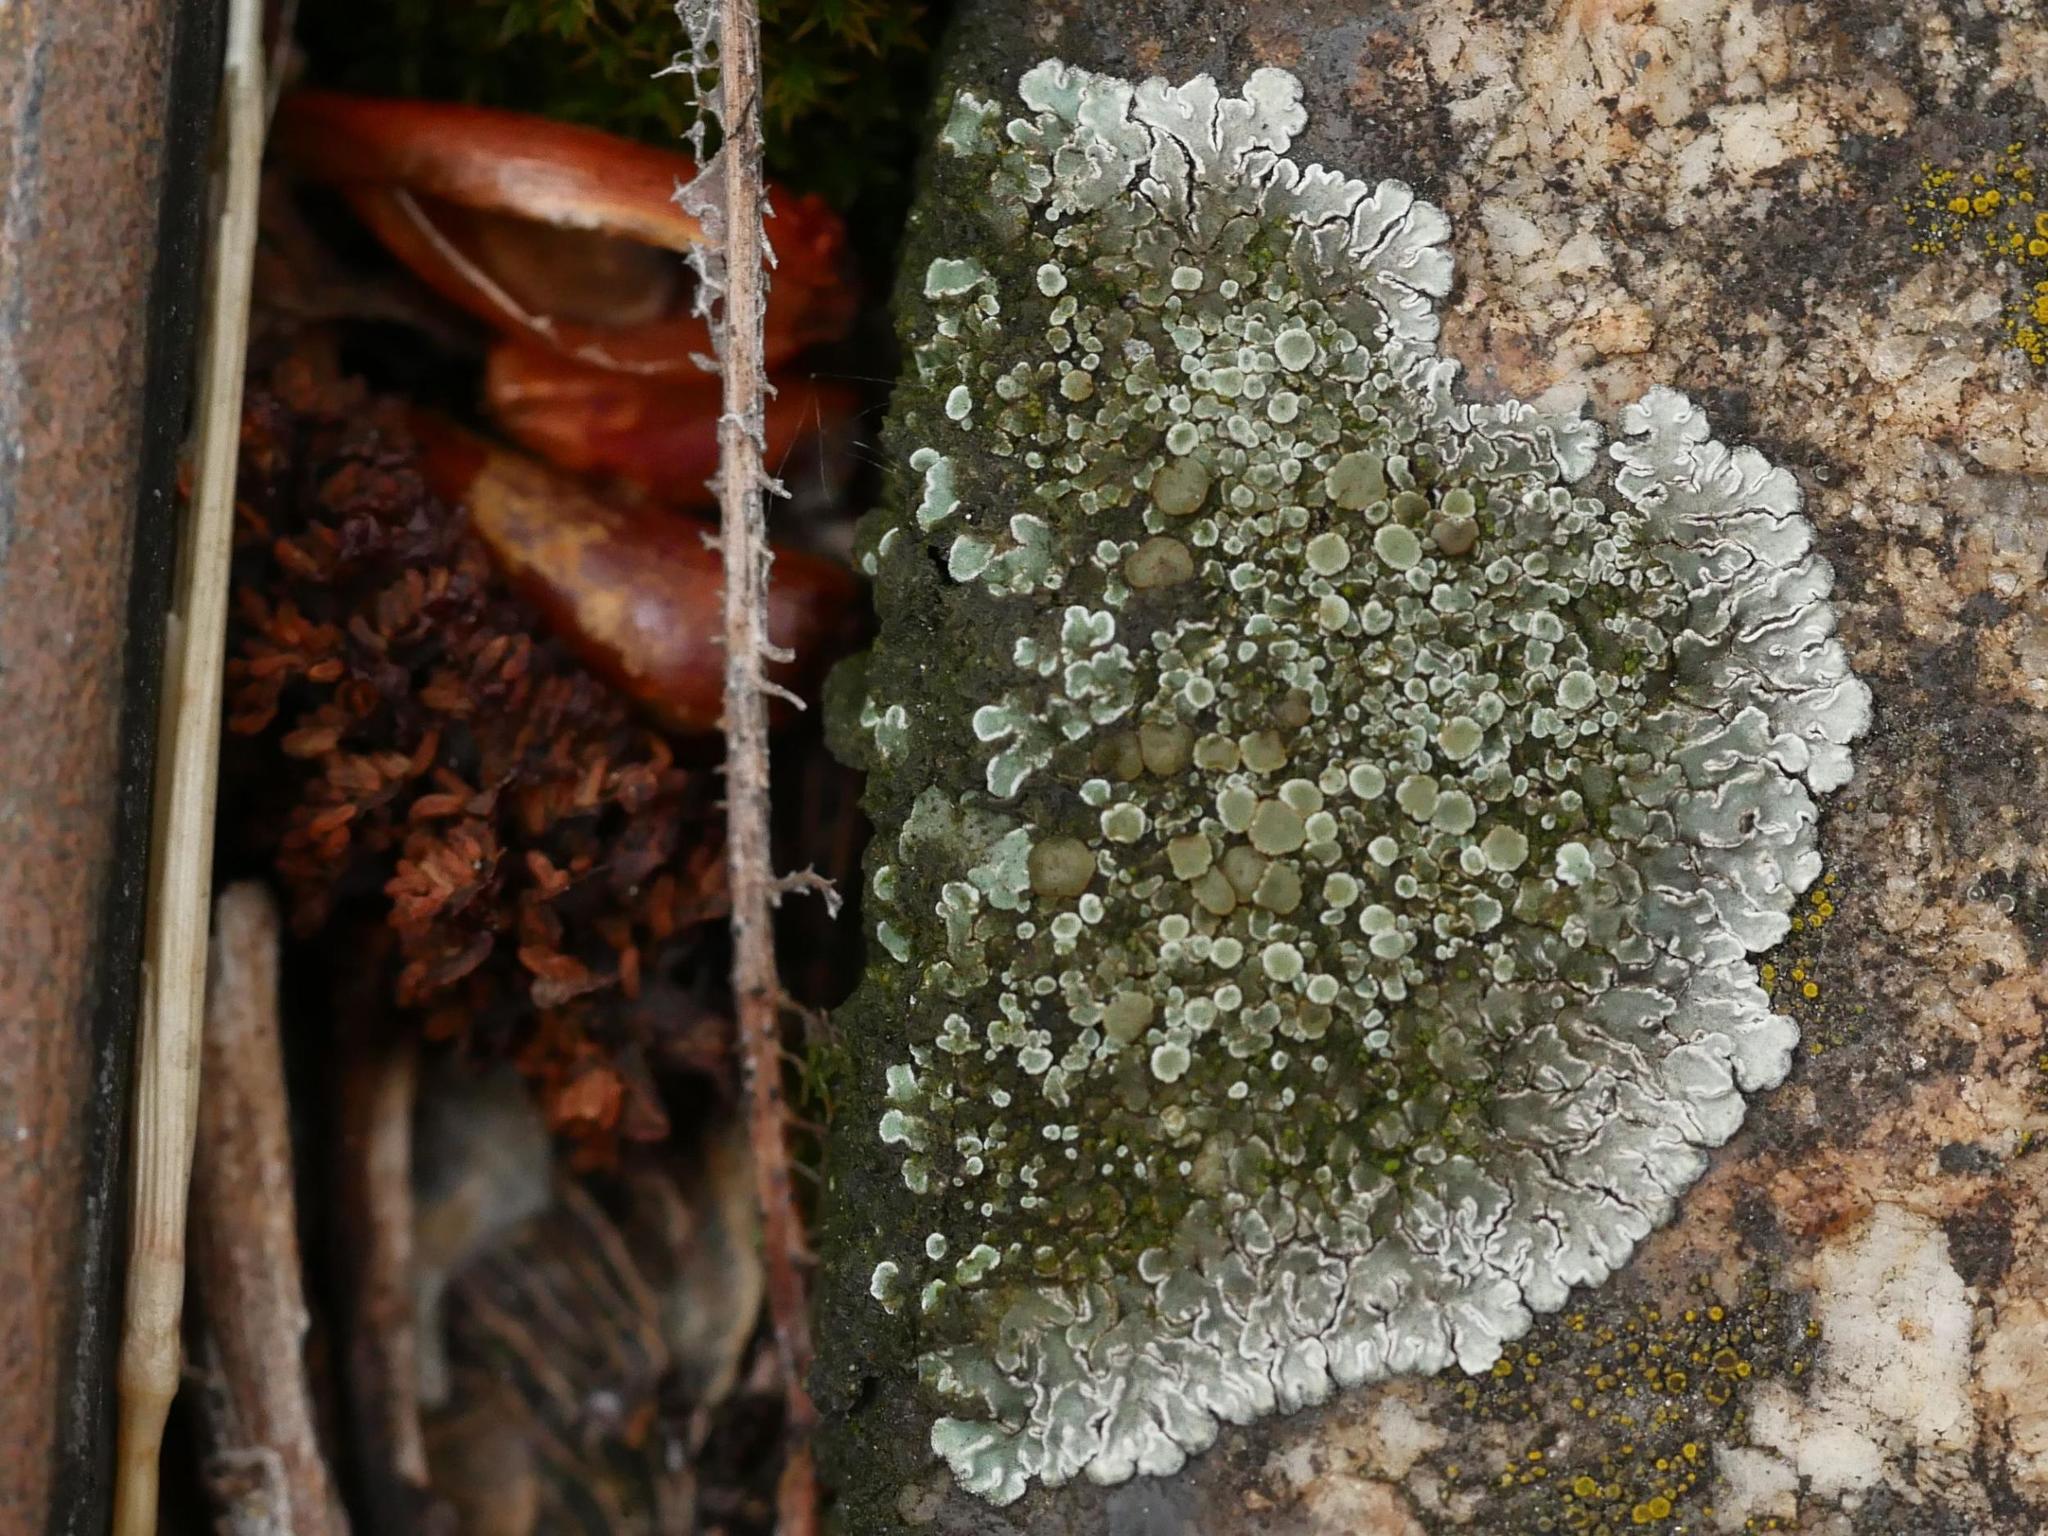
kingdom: Fungi
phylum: Ascomycota
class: Lecanoromycetes
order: Lecanorales
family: Lecanoraceae
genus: Protoparmeliopsis
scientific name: Protoparmeliopsis muralis
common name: Stonewall rim lichen
